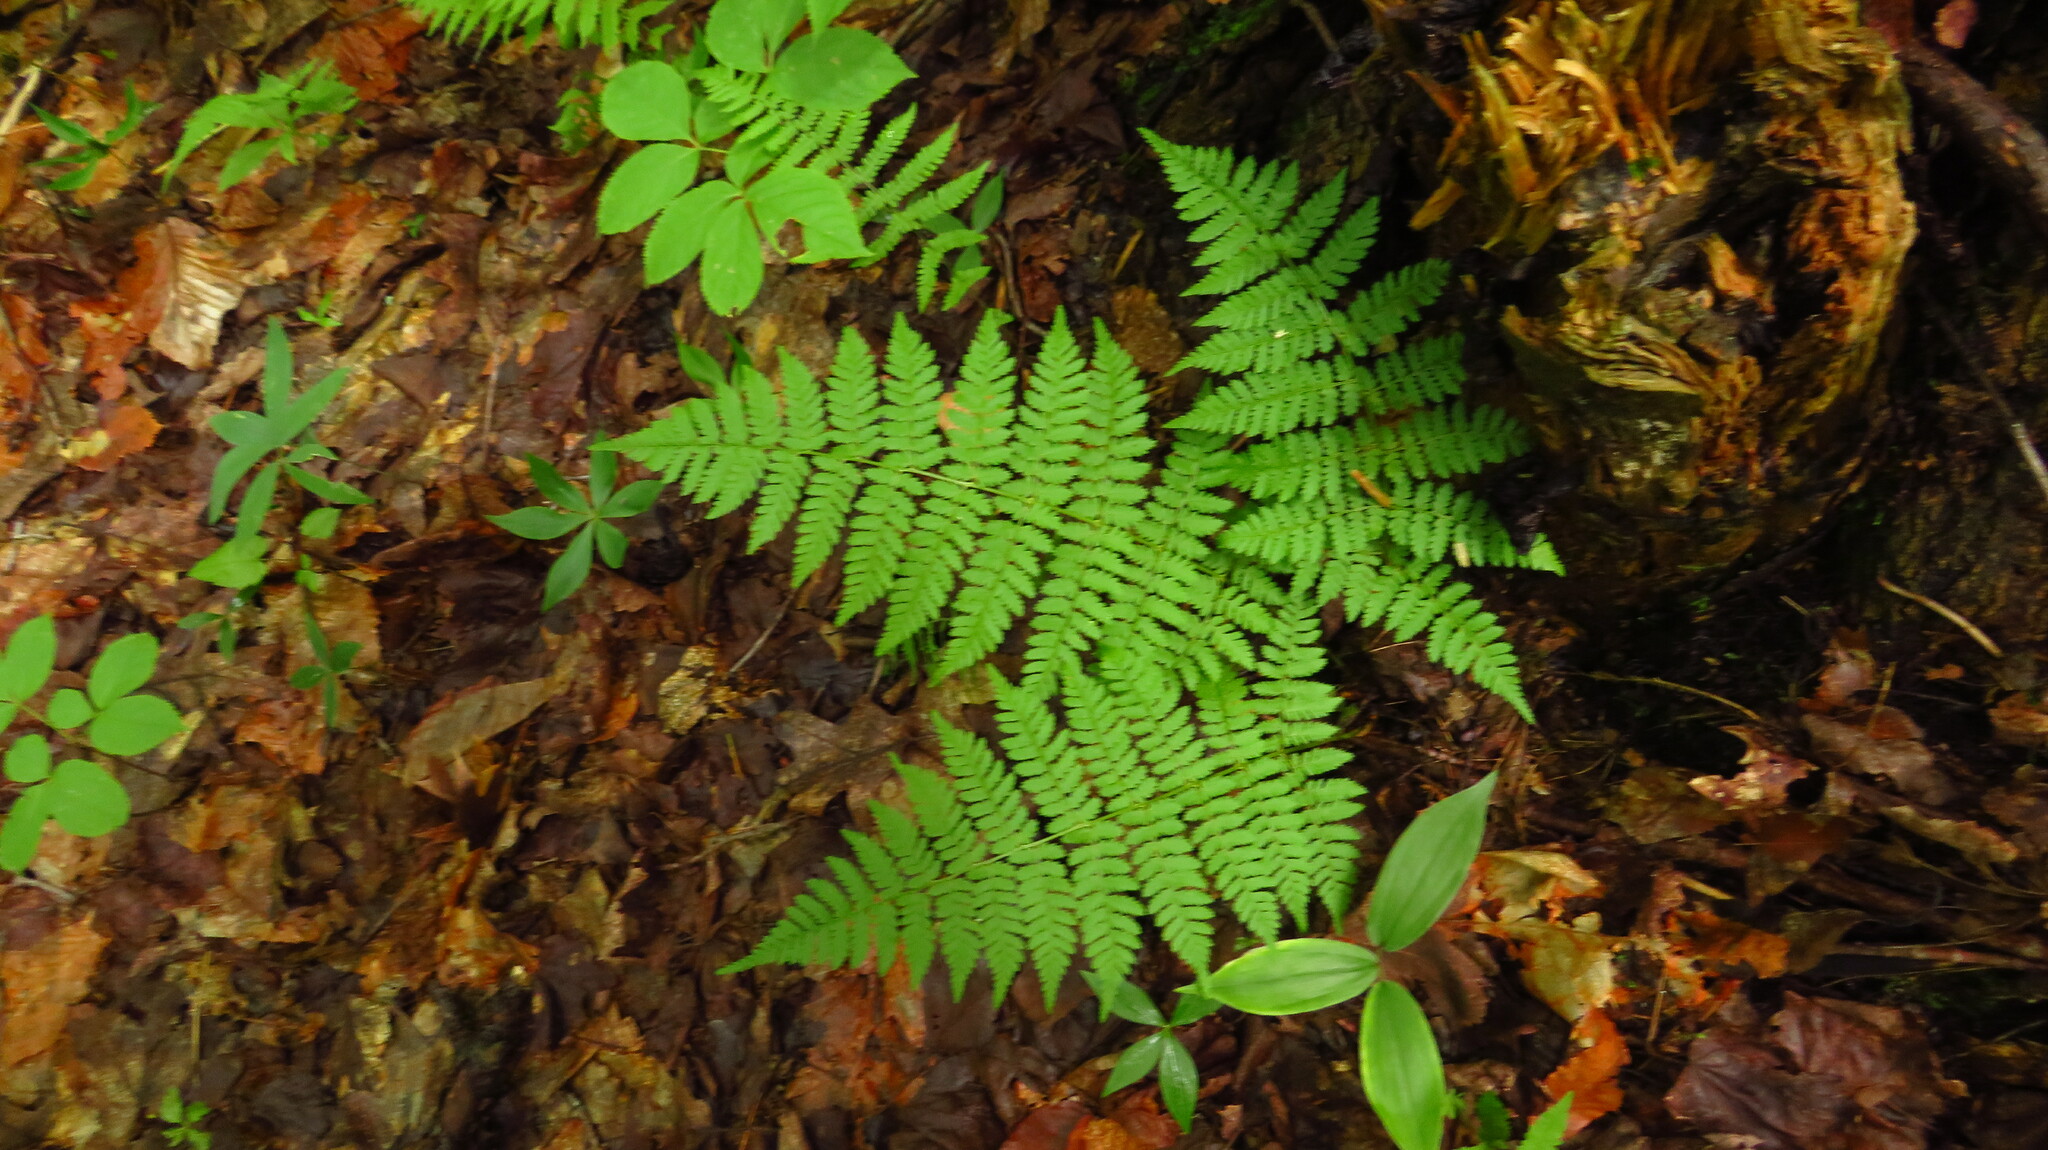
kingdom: Plantae
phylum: Tracheophyta
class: Polypodiopsida
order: Polypodiales
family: Dryopteridaceae
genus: Dryopteris
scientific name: Dryopteris intermedia
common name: Evergreen wood fern
